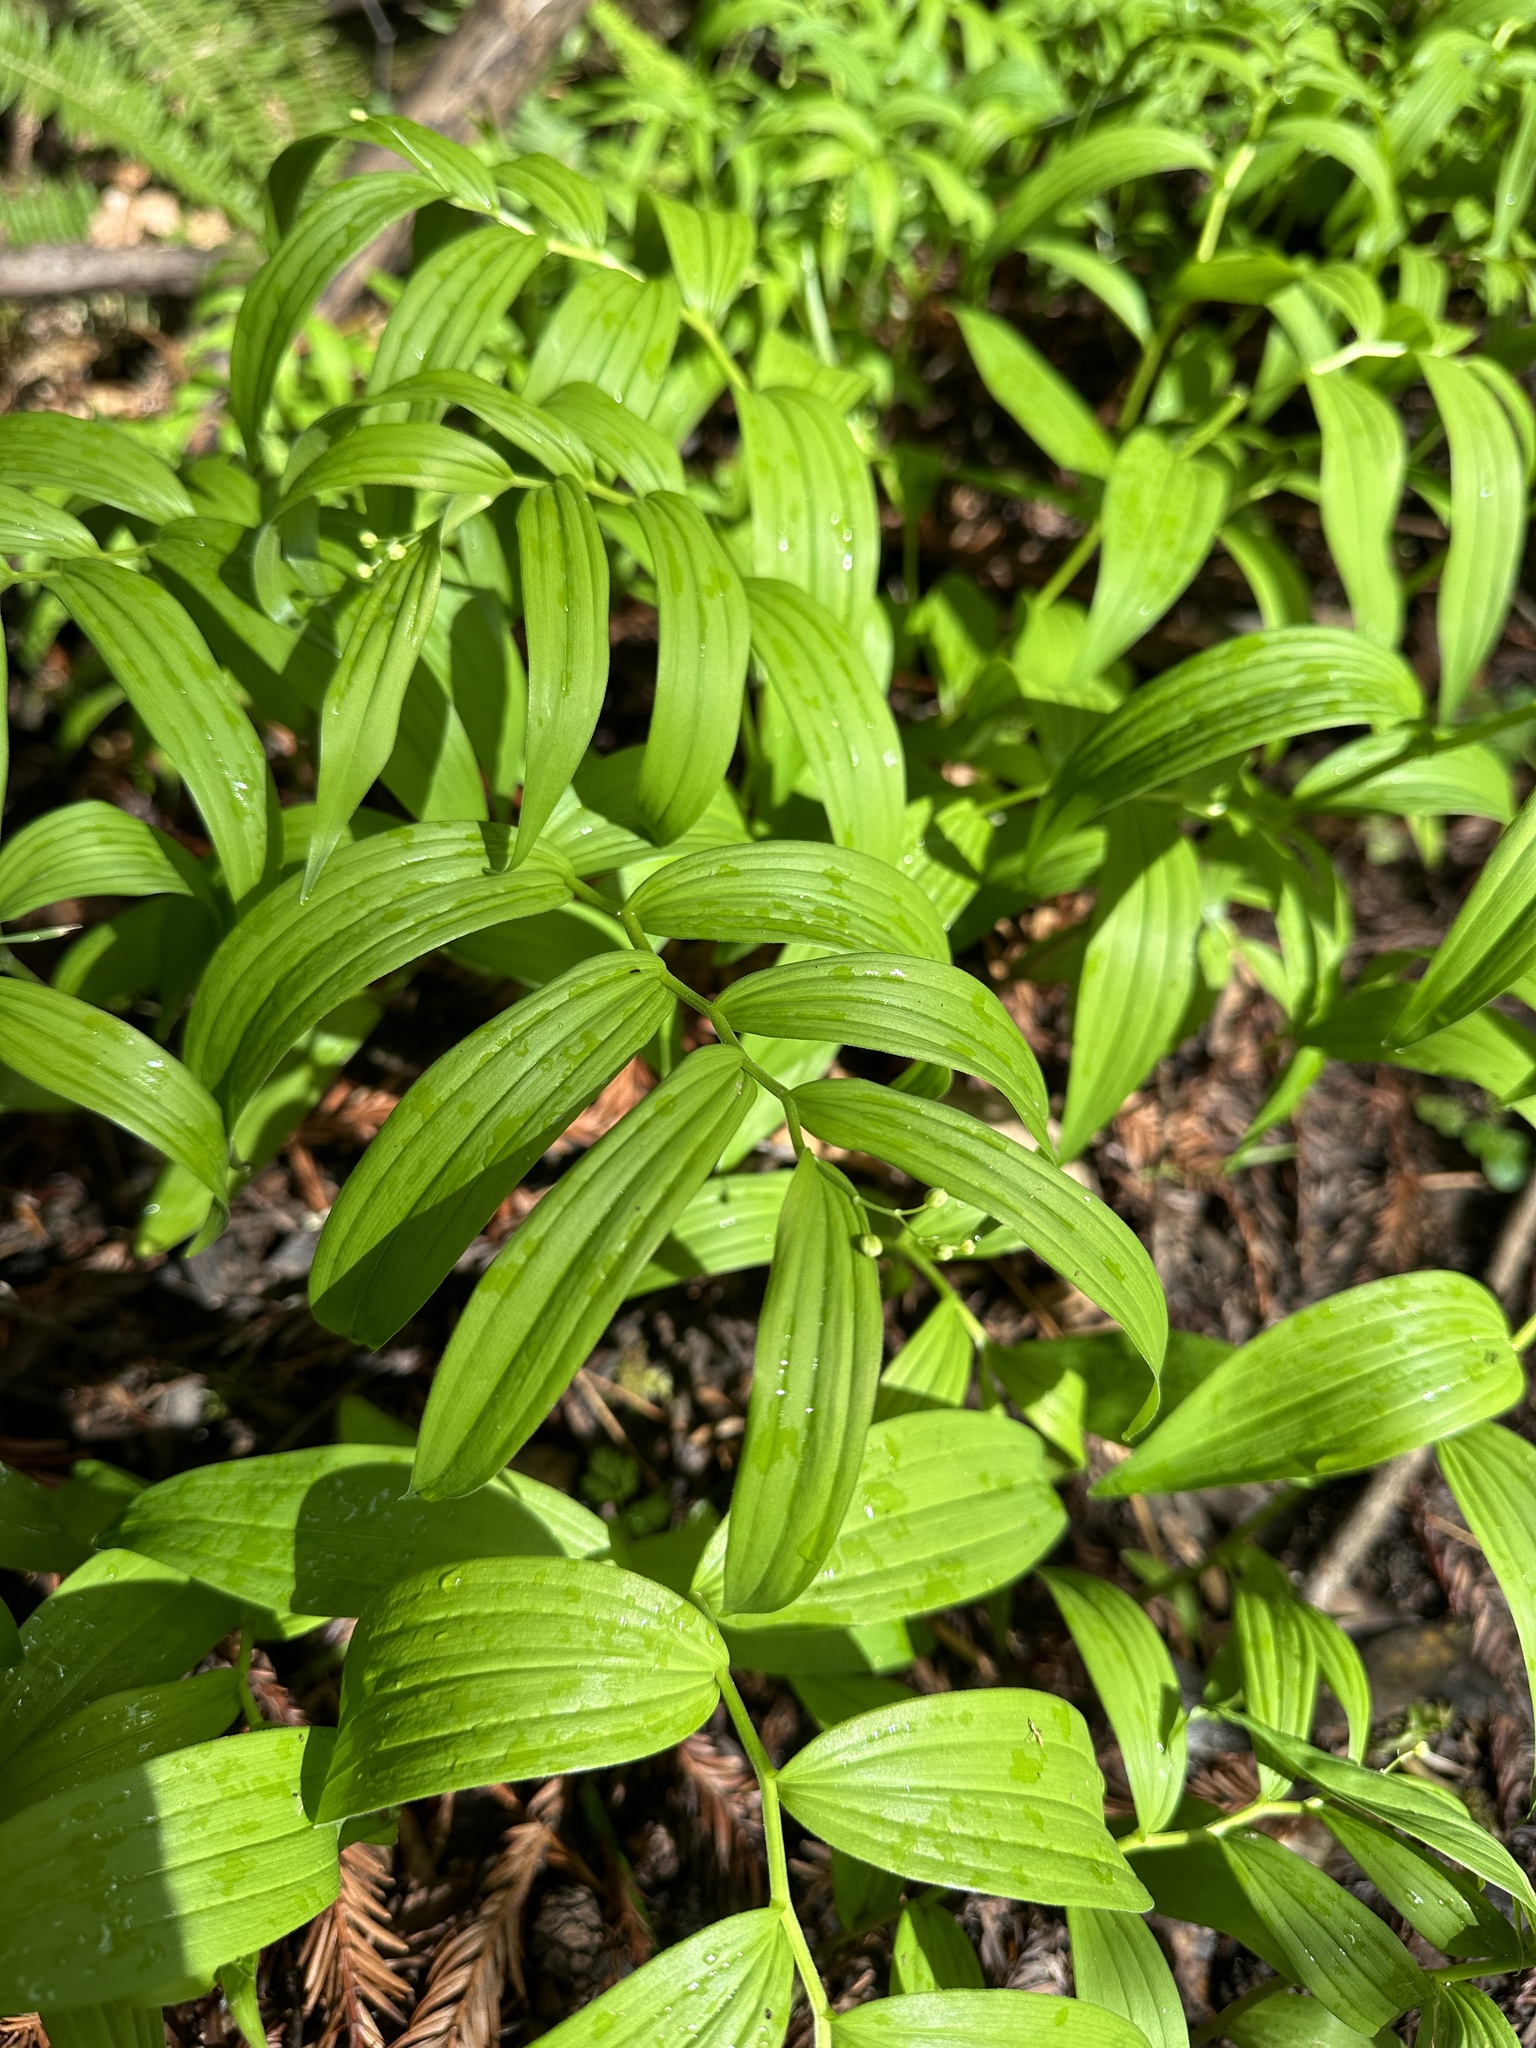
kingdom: Plantae
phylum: Tracheophyta
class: Liliopsida
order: Asparagales
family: Asparagaceae
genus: Maianthemum
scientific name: Maianthemum stellatum
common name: Little false solomon's seal
